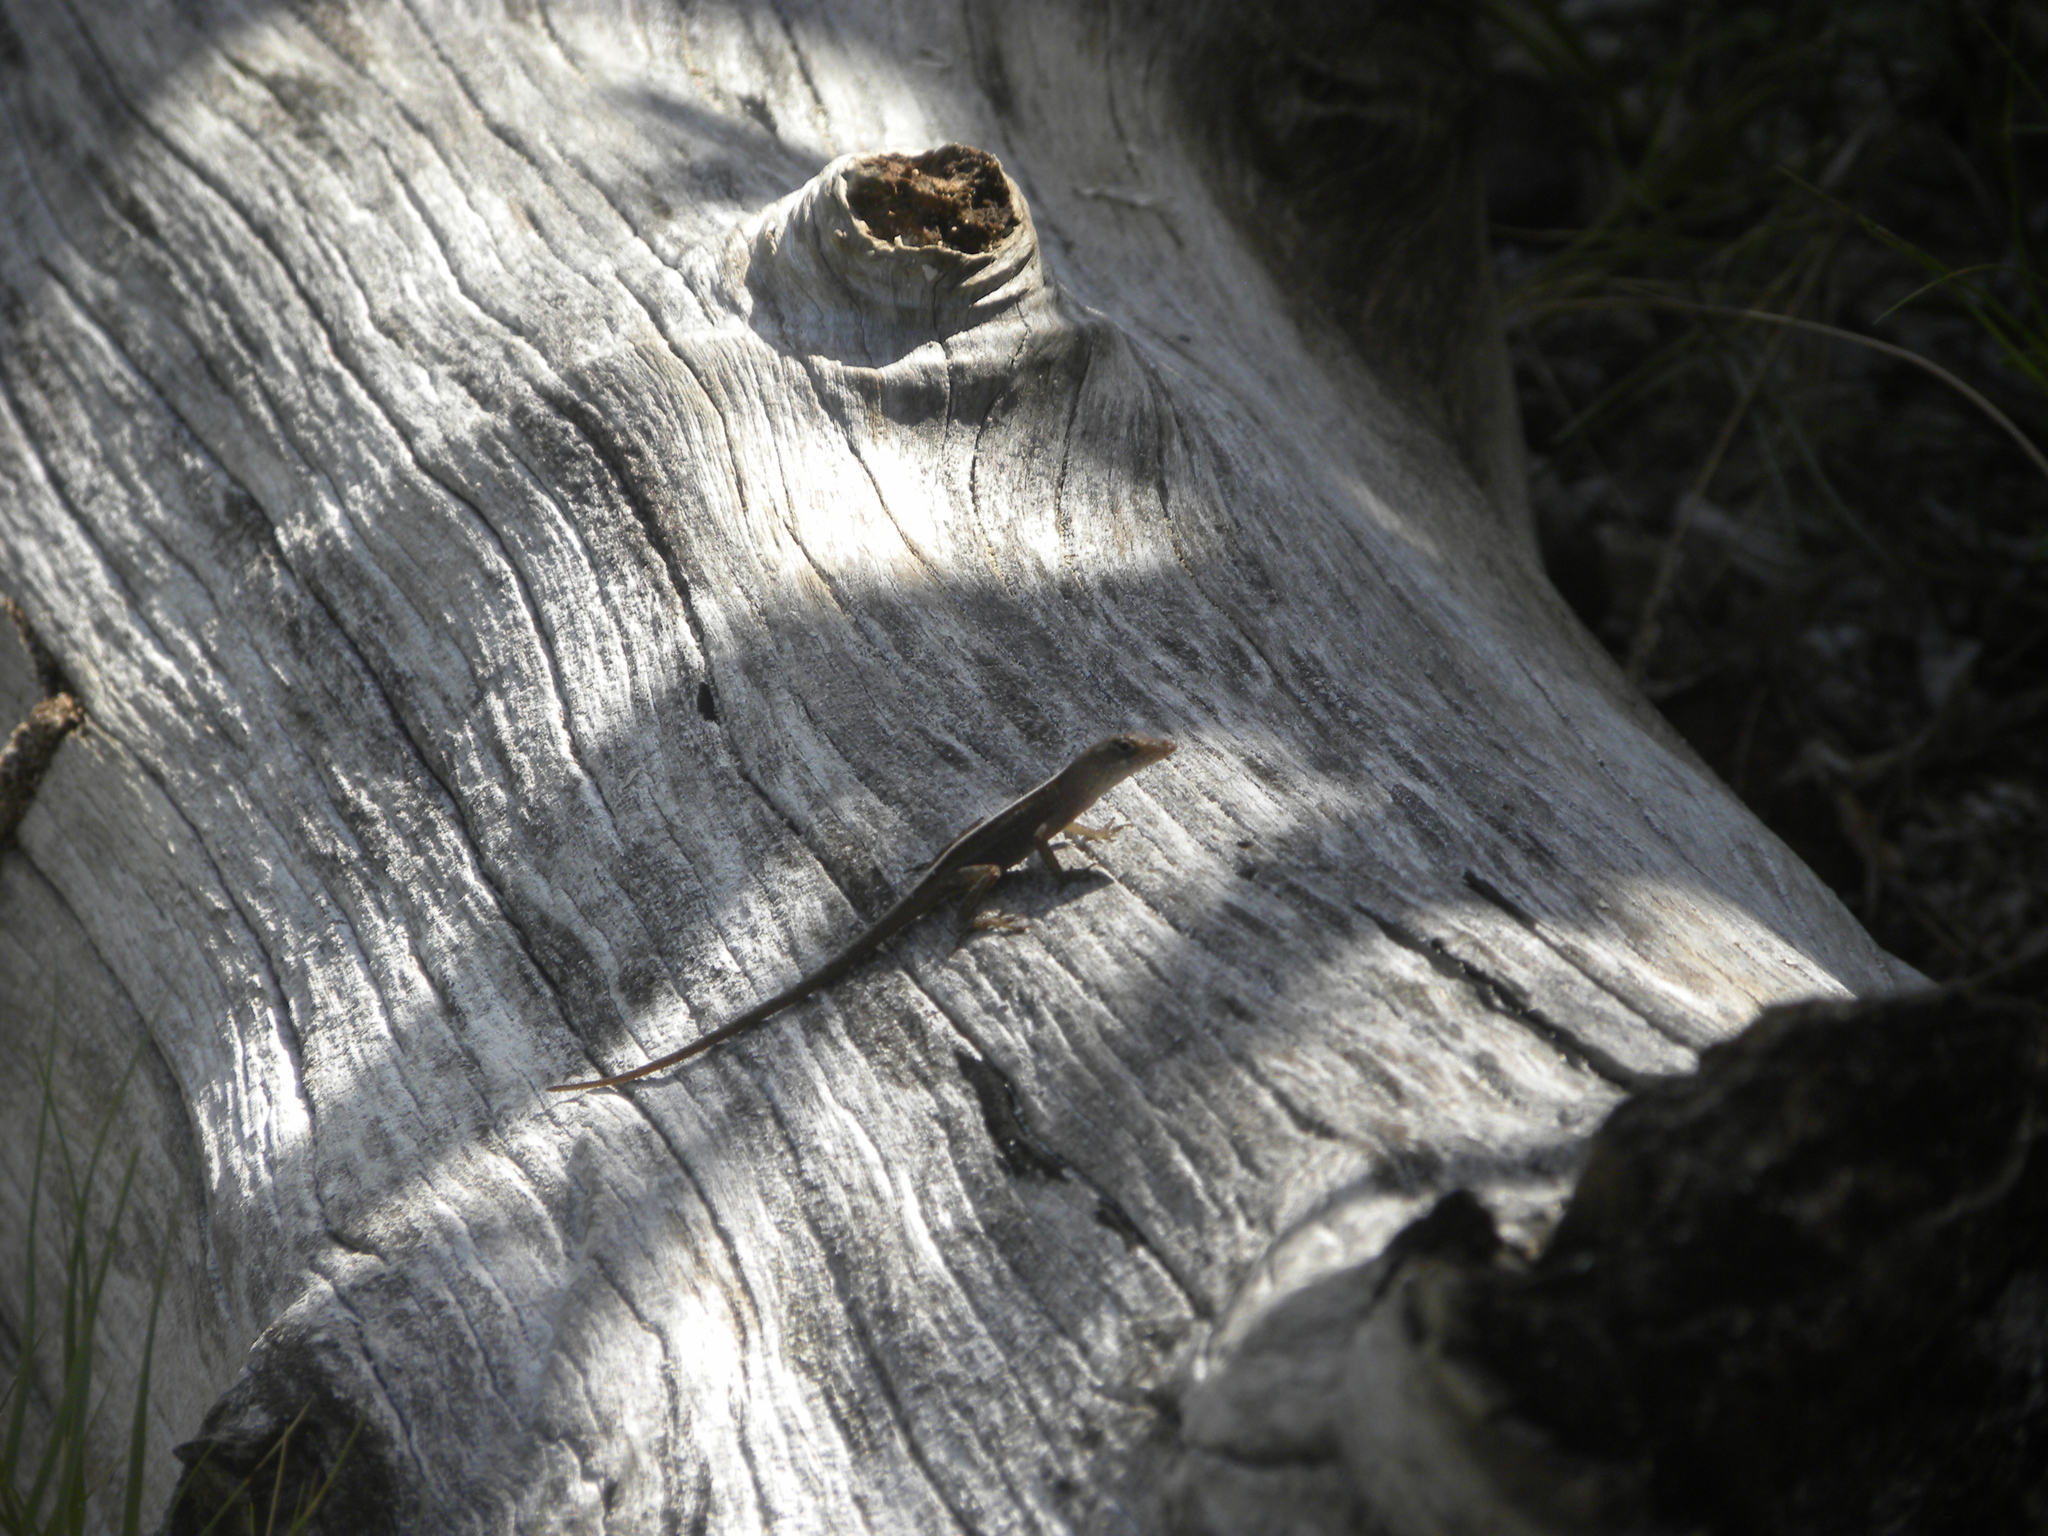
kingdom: Animalia
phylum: Chordata
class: Squamata
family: Dactyloidae
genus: Anolis
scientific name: Anolis sagrei
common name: Brown anole
